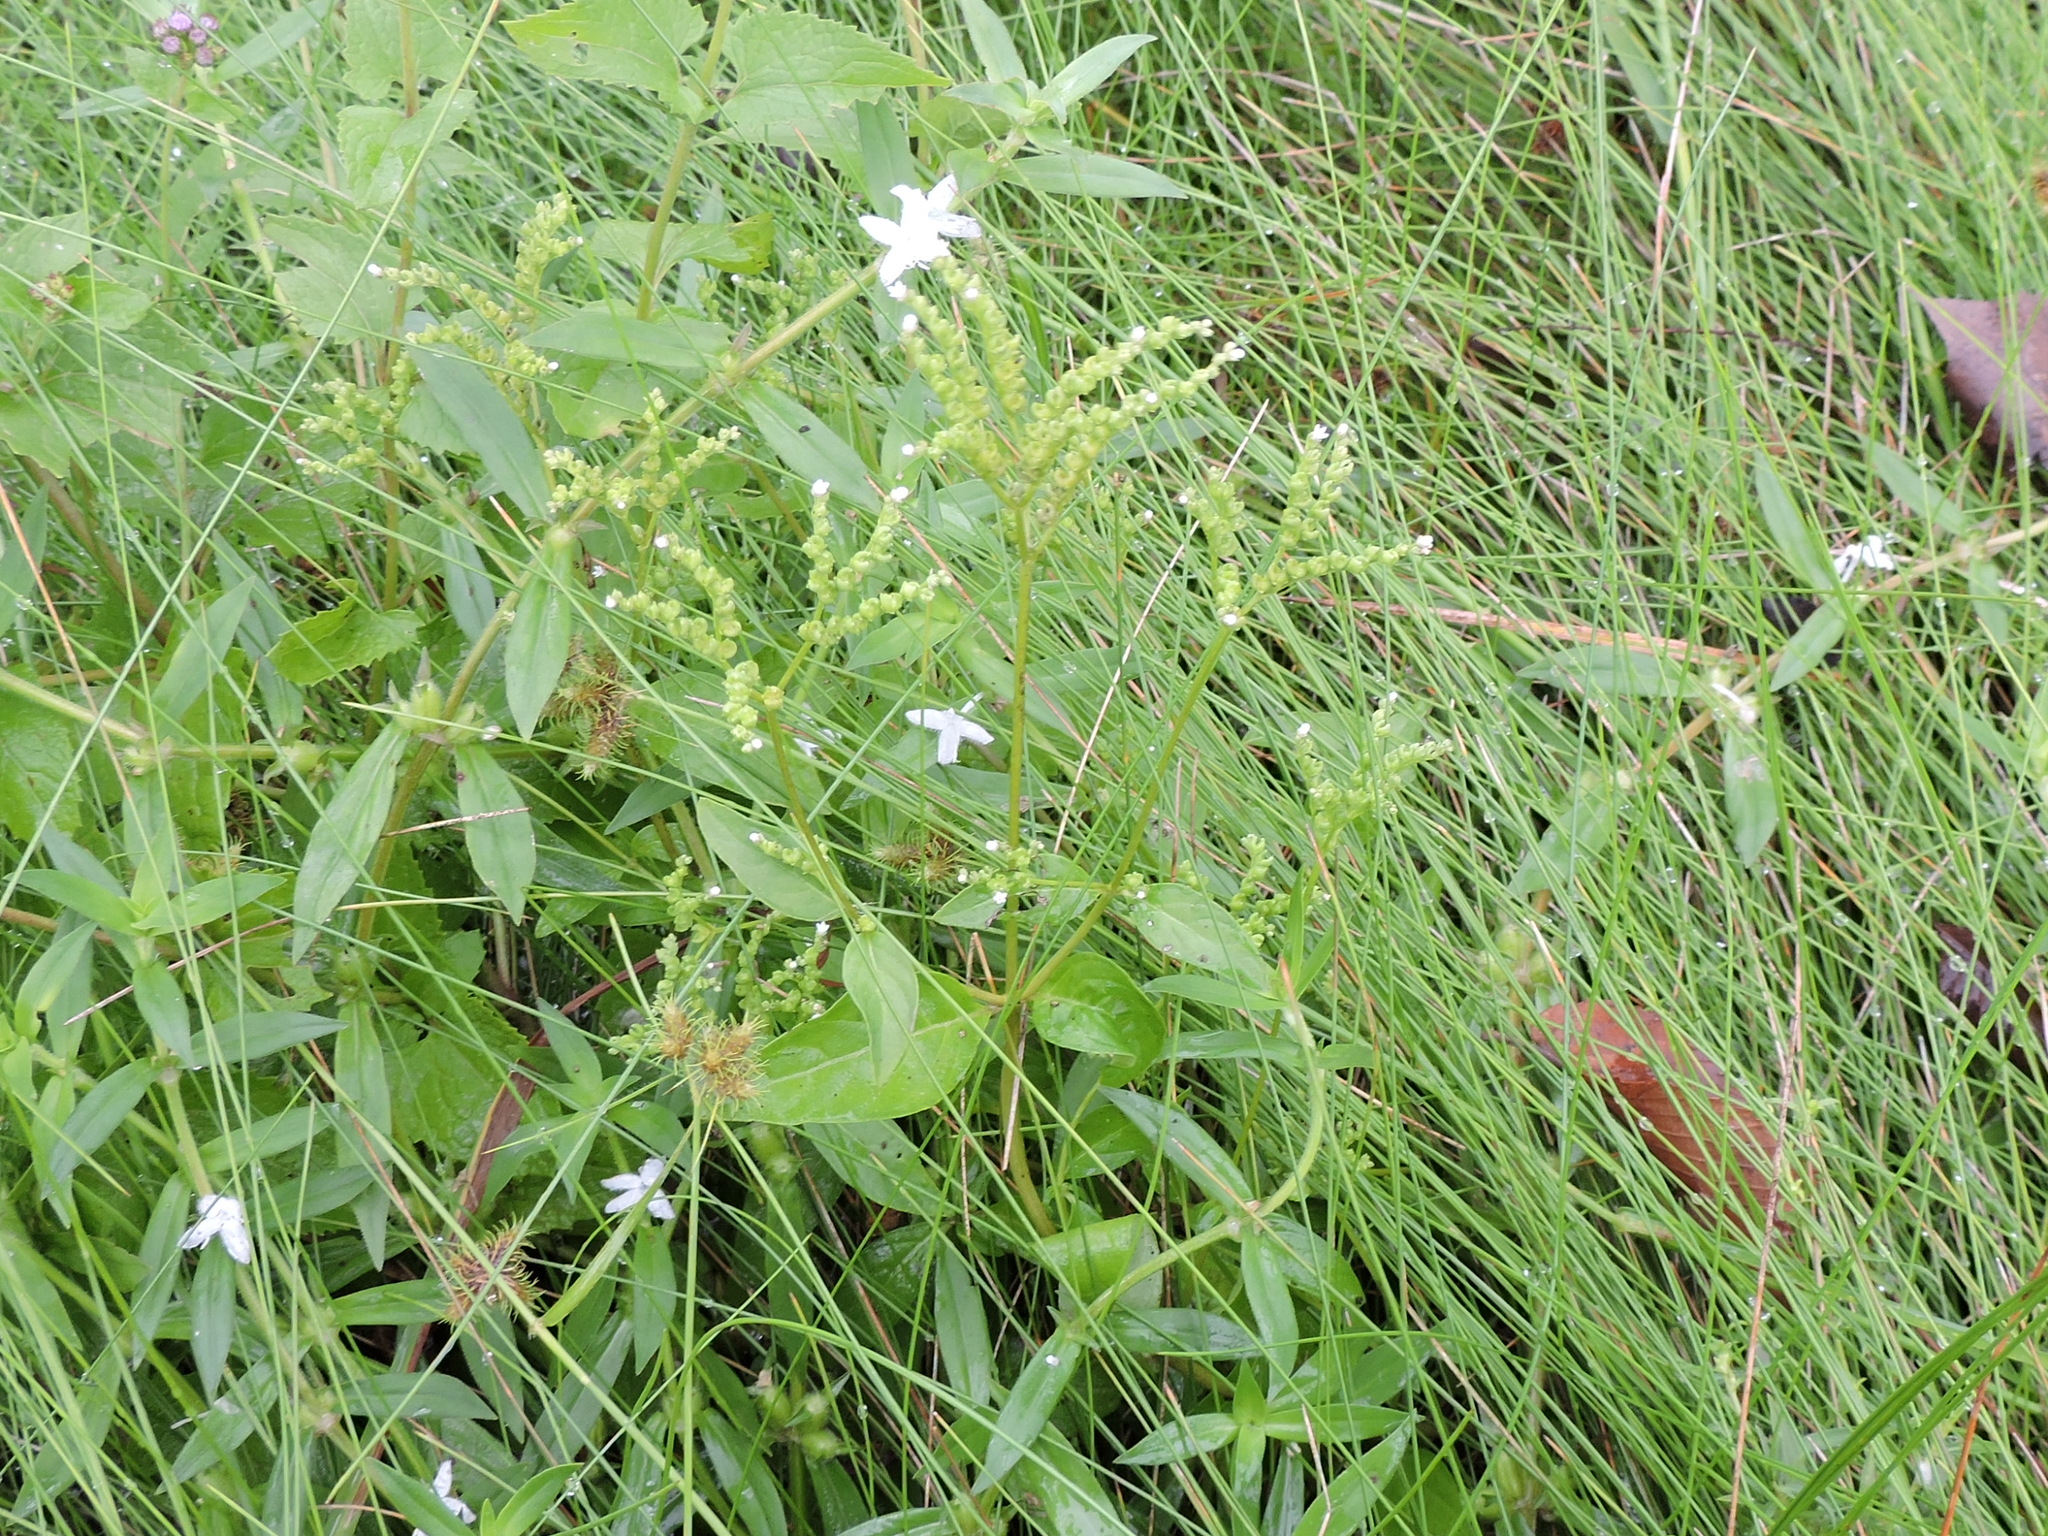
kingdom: Plantae
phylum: Tracheophyta
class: Magnoliopsida
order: Gentianales
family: Loganiaceae
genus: Mitreola
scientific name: Mitreola petiolata
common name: Lax hornpod
